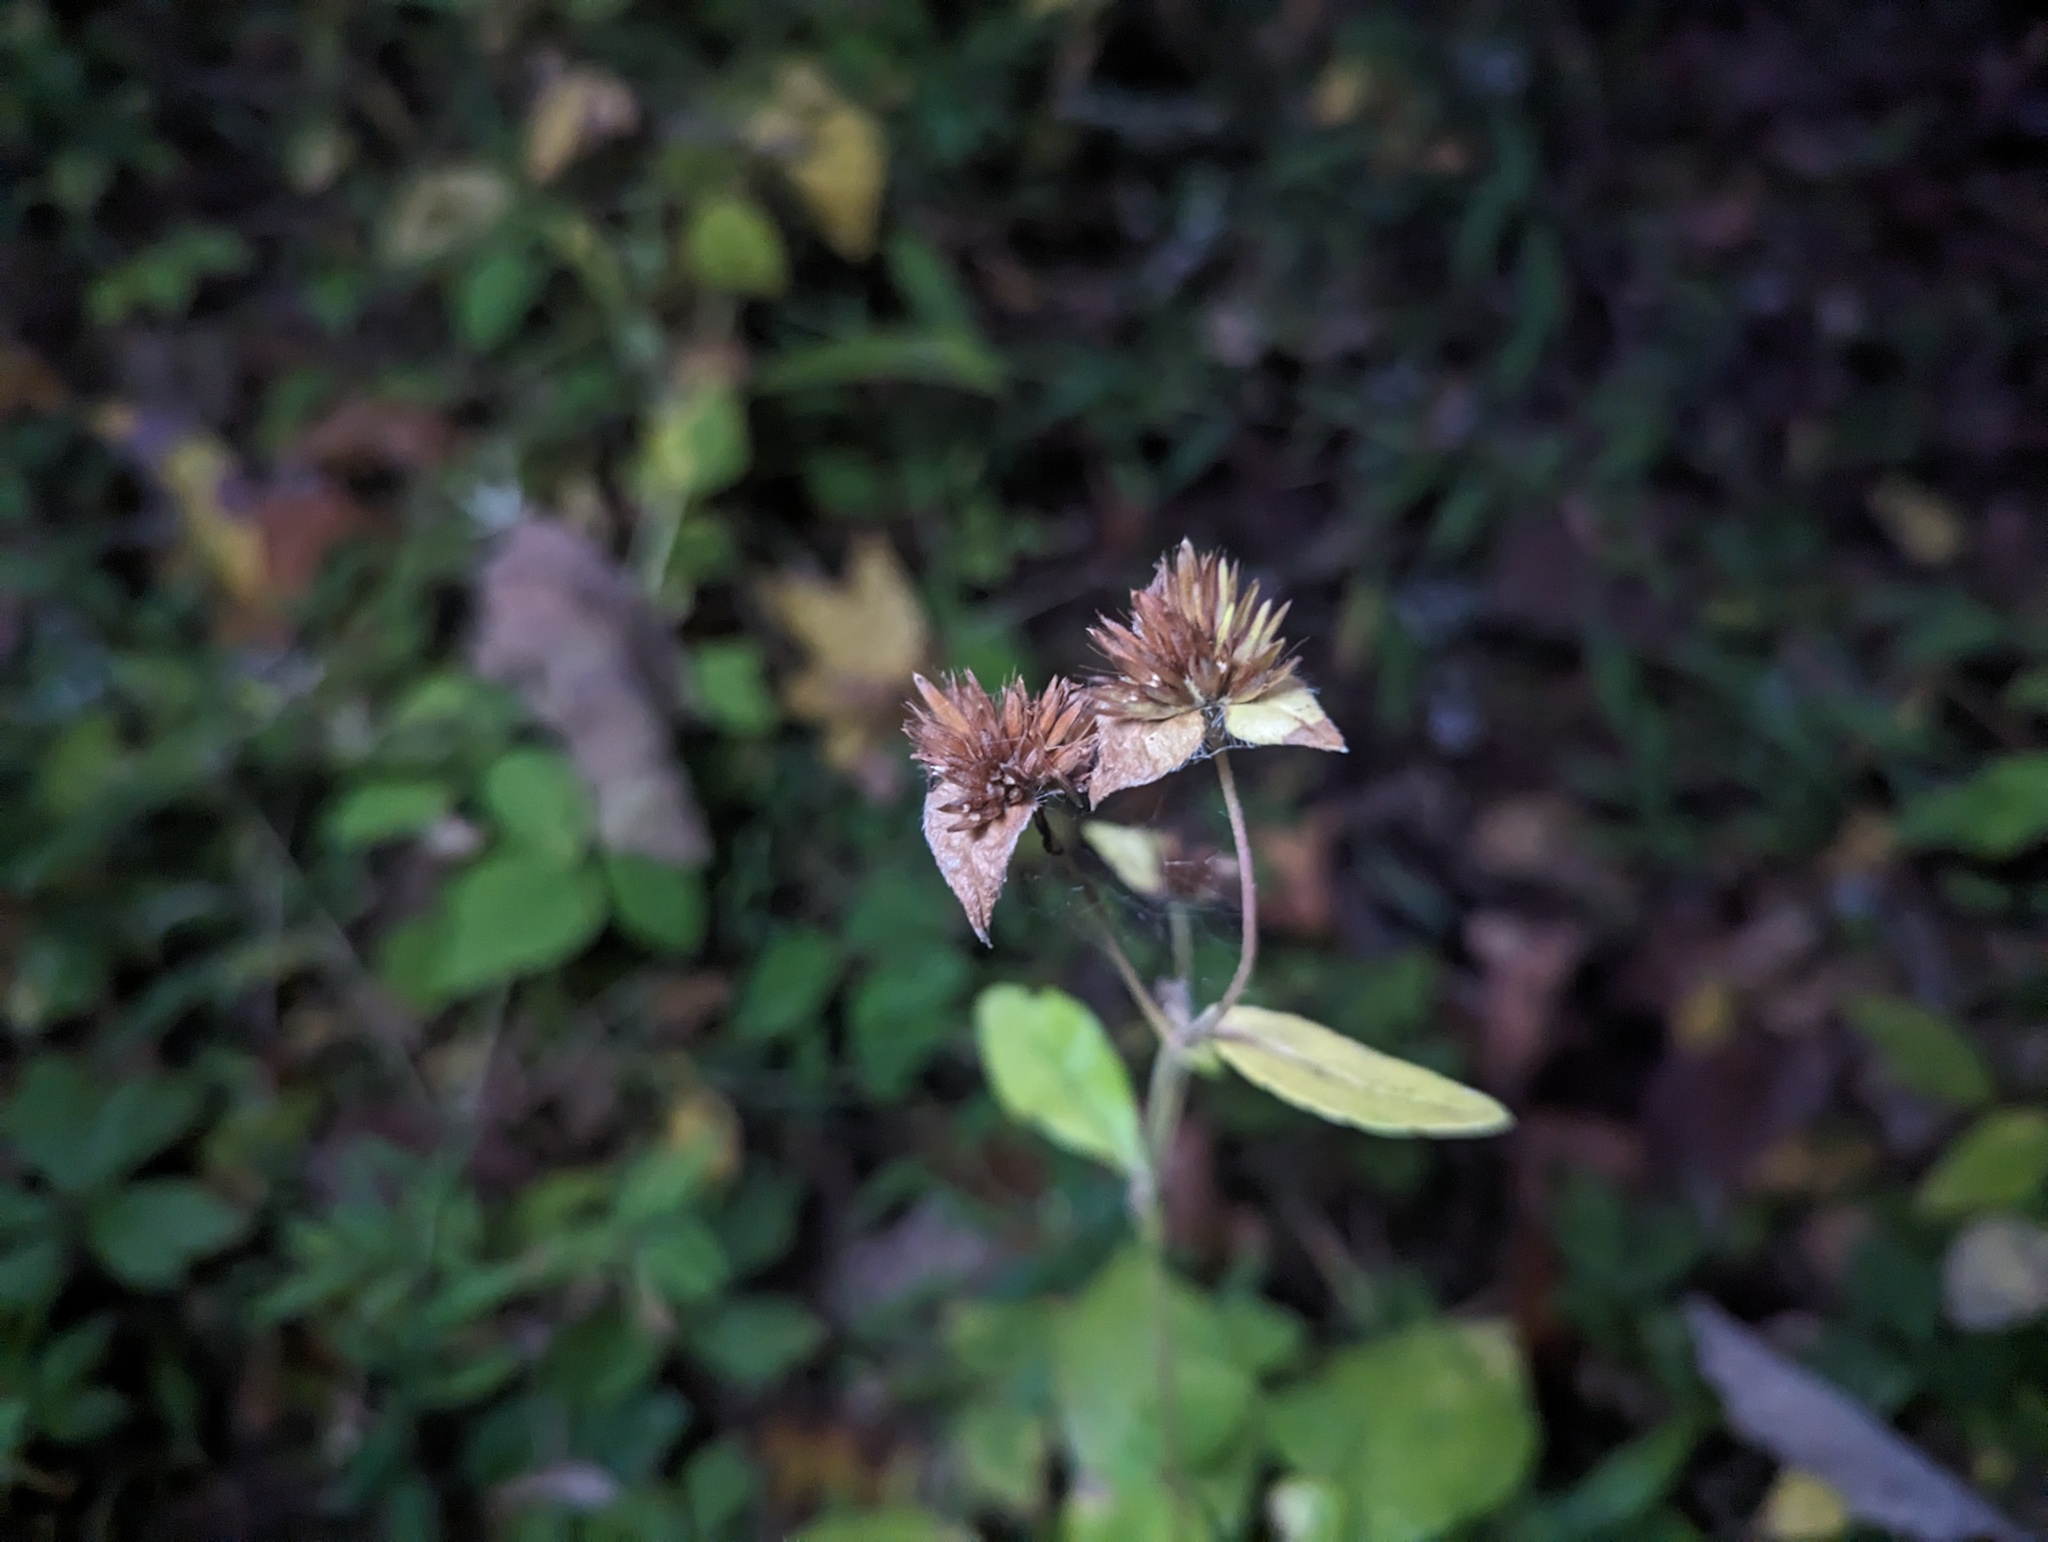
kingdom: Plantae
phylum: Tracheophyta
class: Magnoliopsida
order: Asterales
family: Asteraceae
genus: Elephantopus
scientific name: Elephantopus carolinianus
